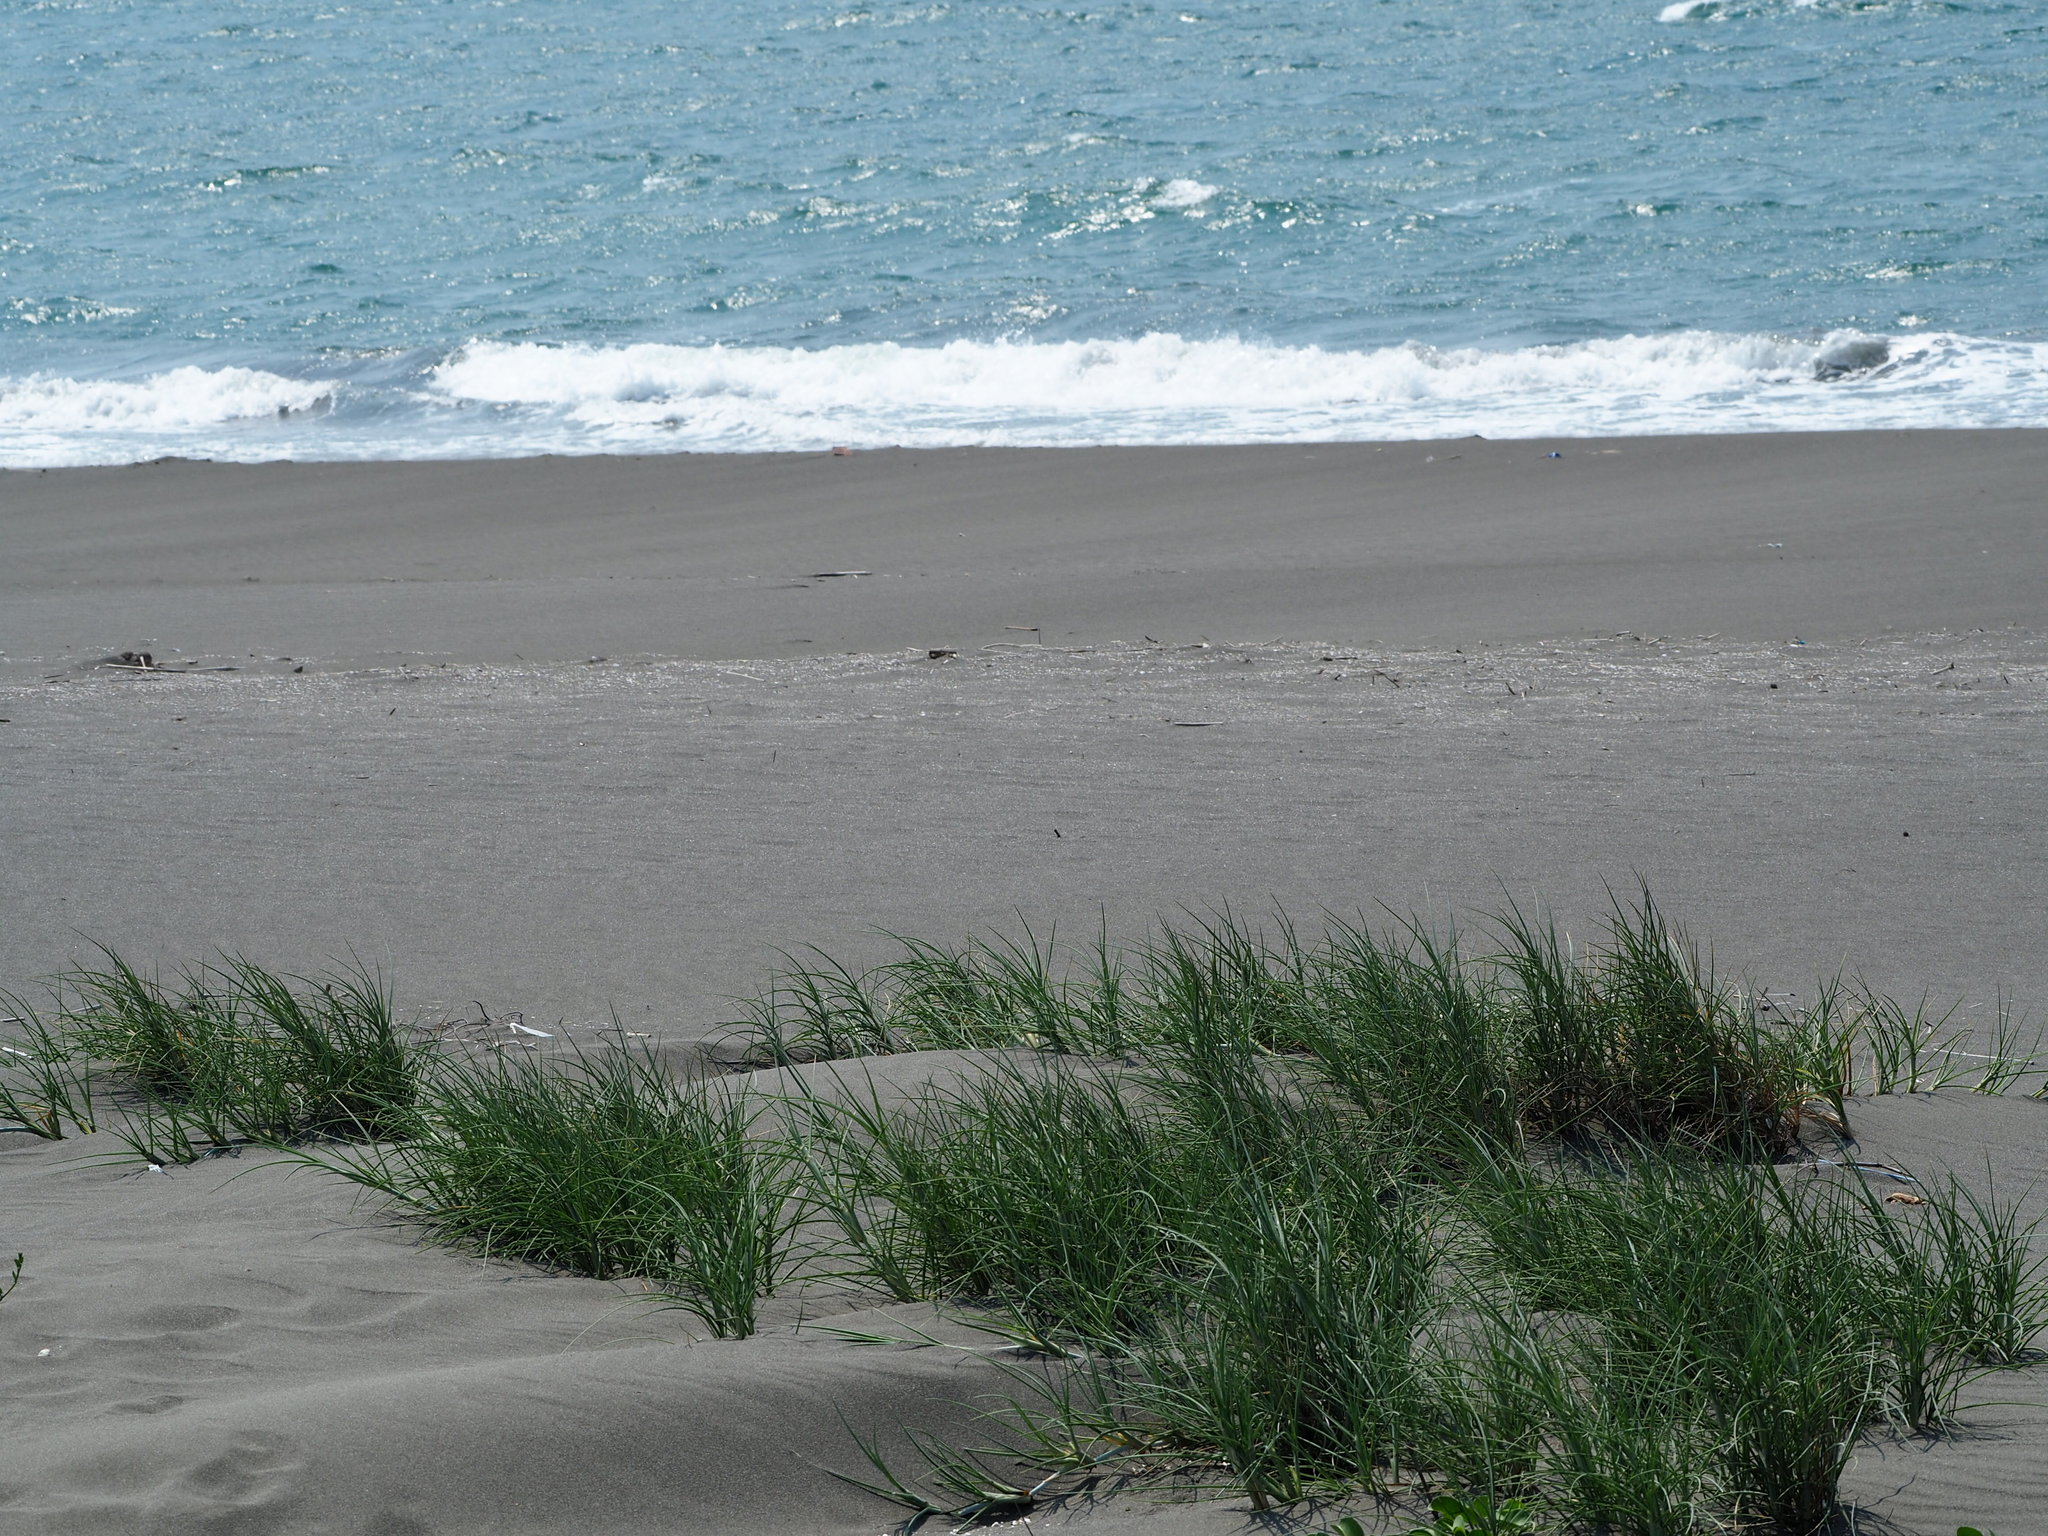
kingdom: Plantae
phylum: Tracheophyta
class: Liliopsida
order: Poales
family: Poaceae
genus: Spinifex
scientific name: Spinifex littoreus
